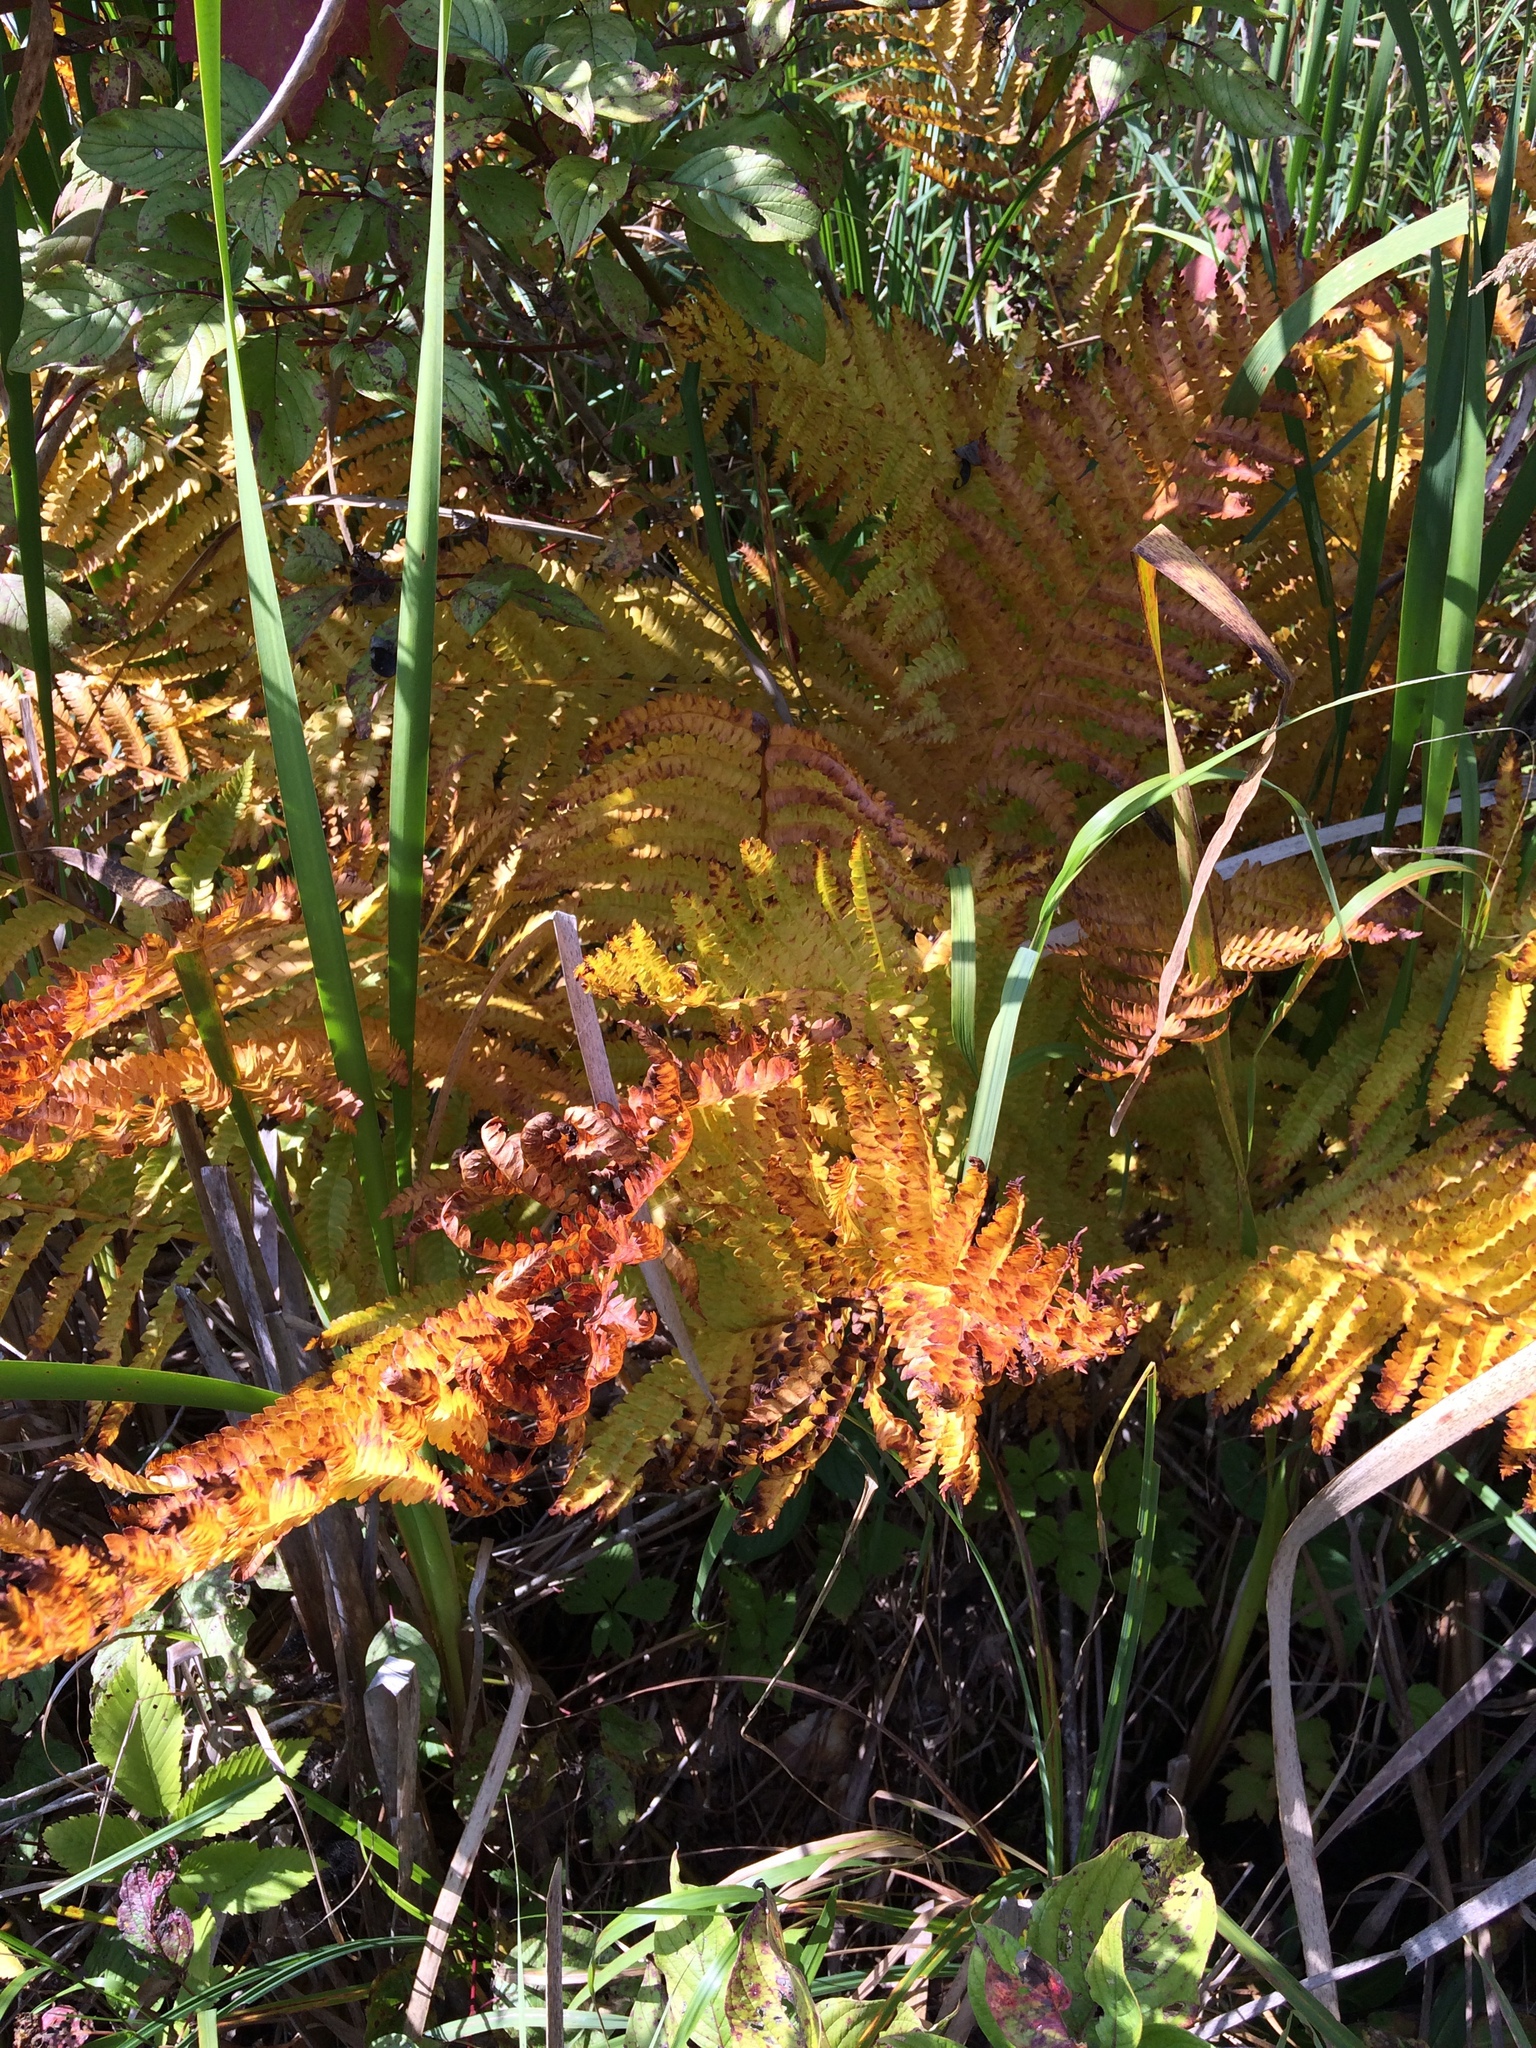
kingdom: Plantae
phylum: Tracheophyta
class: Polypodiopsida
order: Osmundales
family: Osmundaceae
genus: Osmundastrum
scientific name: Osmundastrum cinnamomeum
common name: Cinnamon fern
